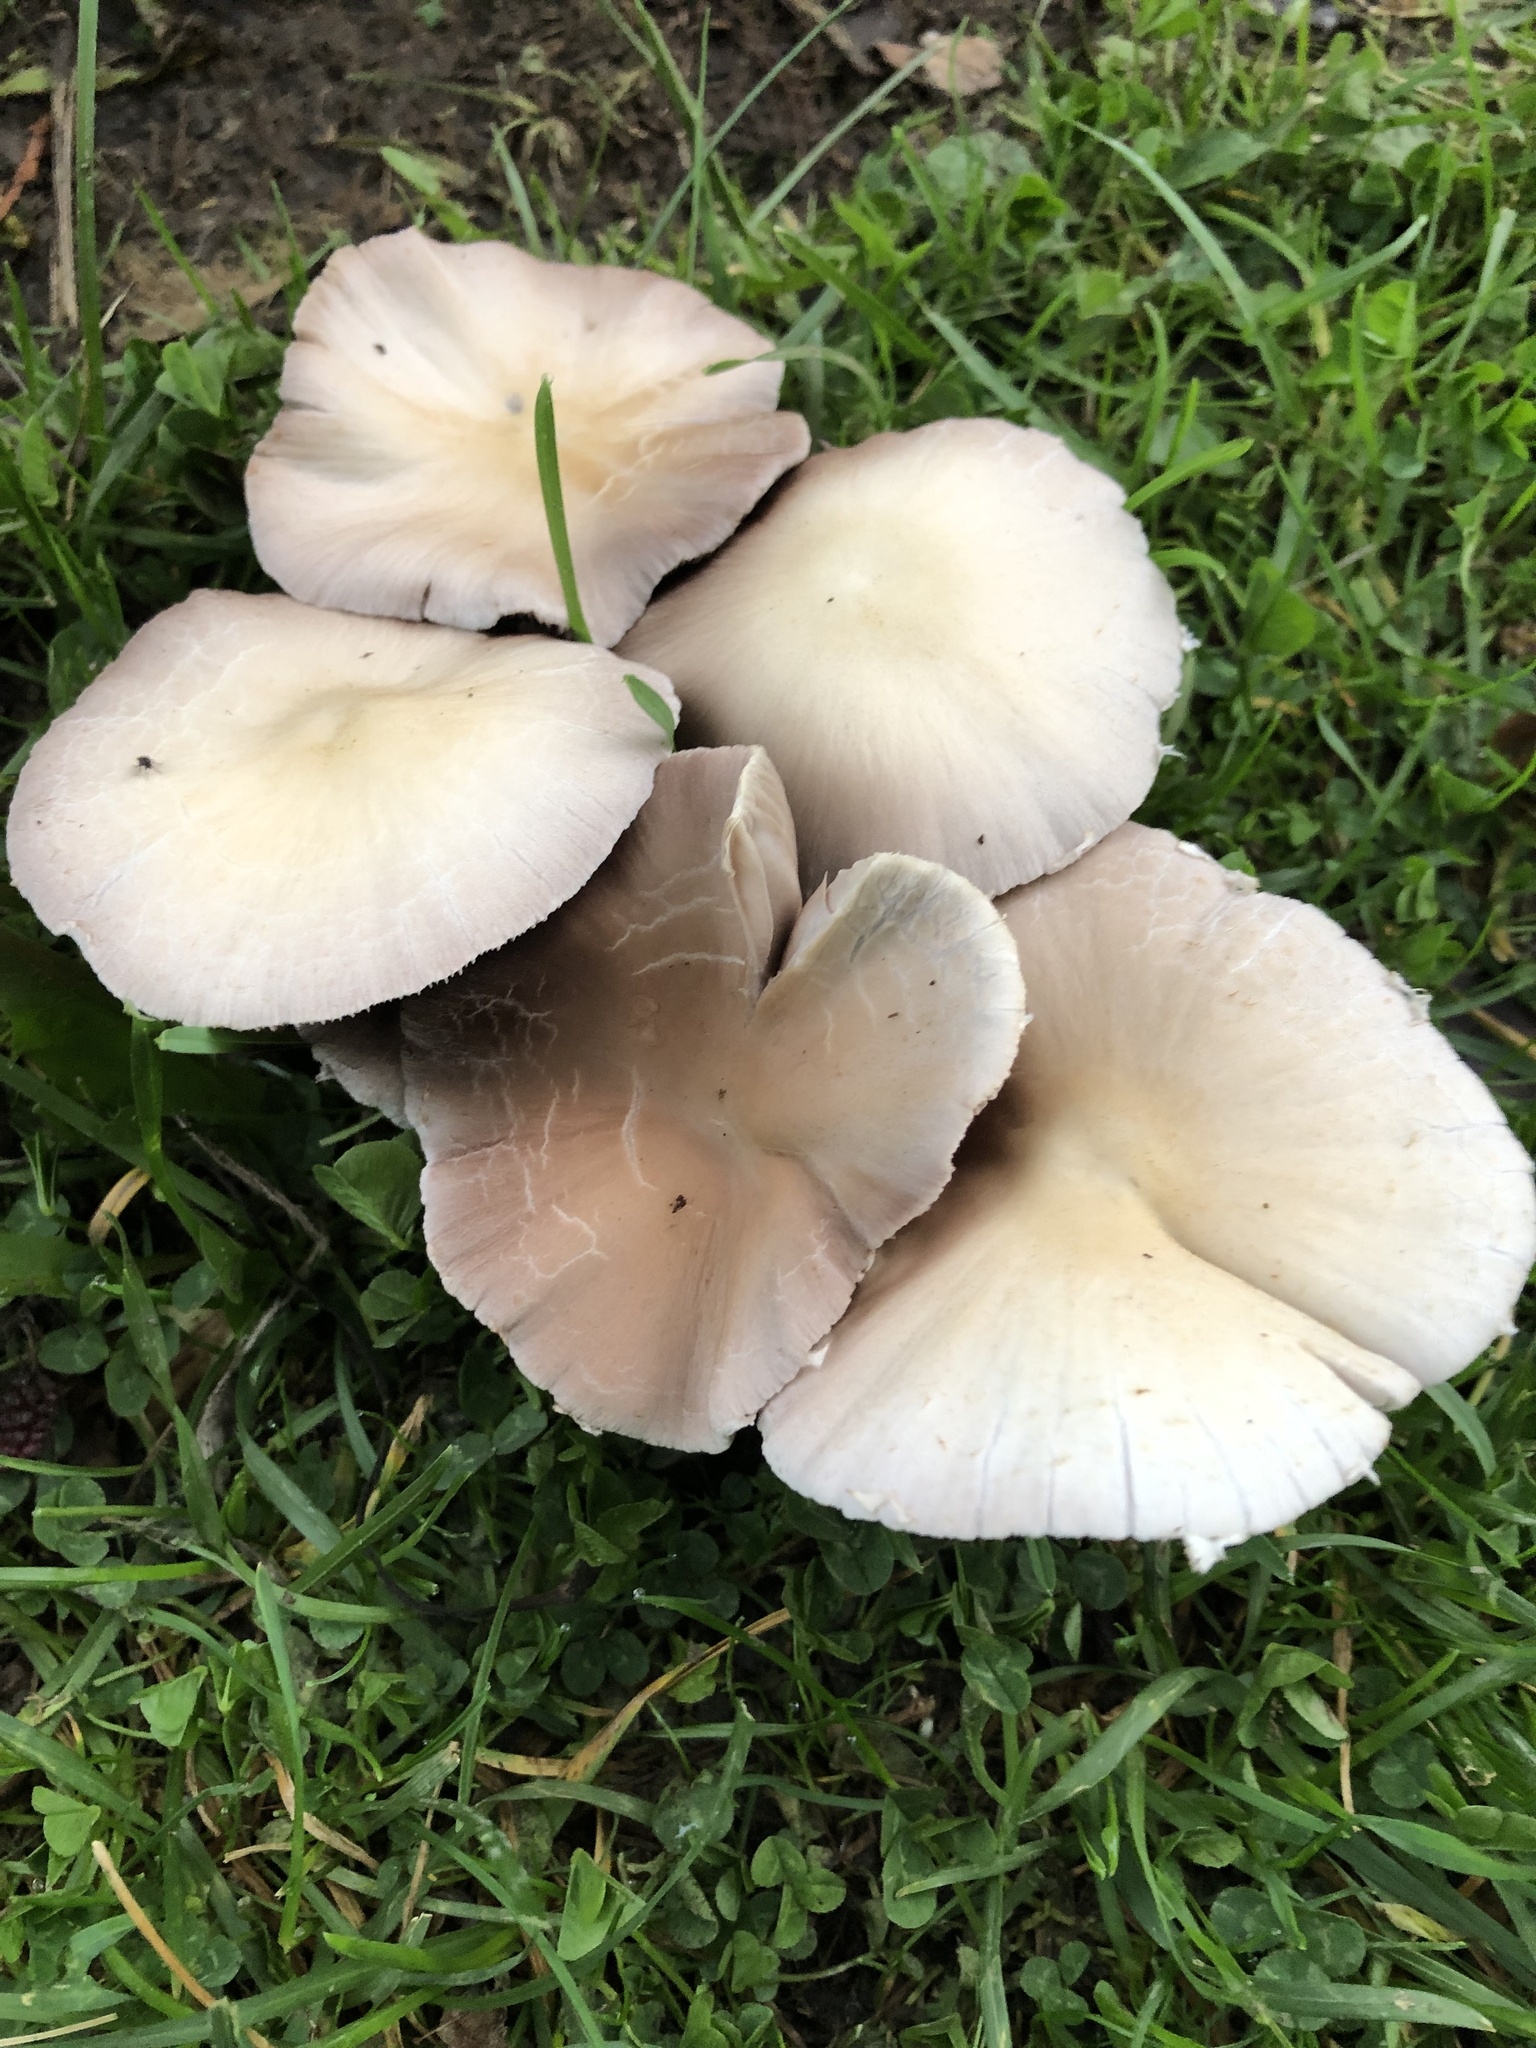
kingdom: Fungi
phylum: Basidiomycota
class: Agaricomycetes
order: Agaricales
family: Psathyrellaceae
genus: Candolleomyces
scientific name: Candolleomyces candolleanus
